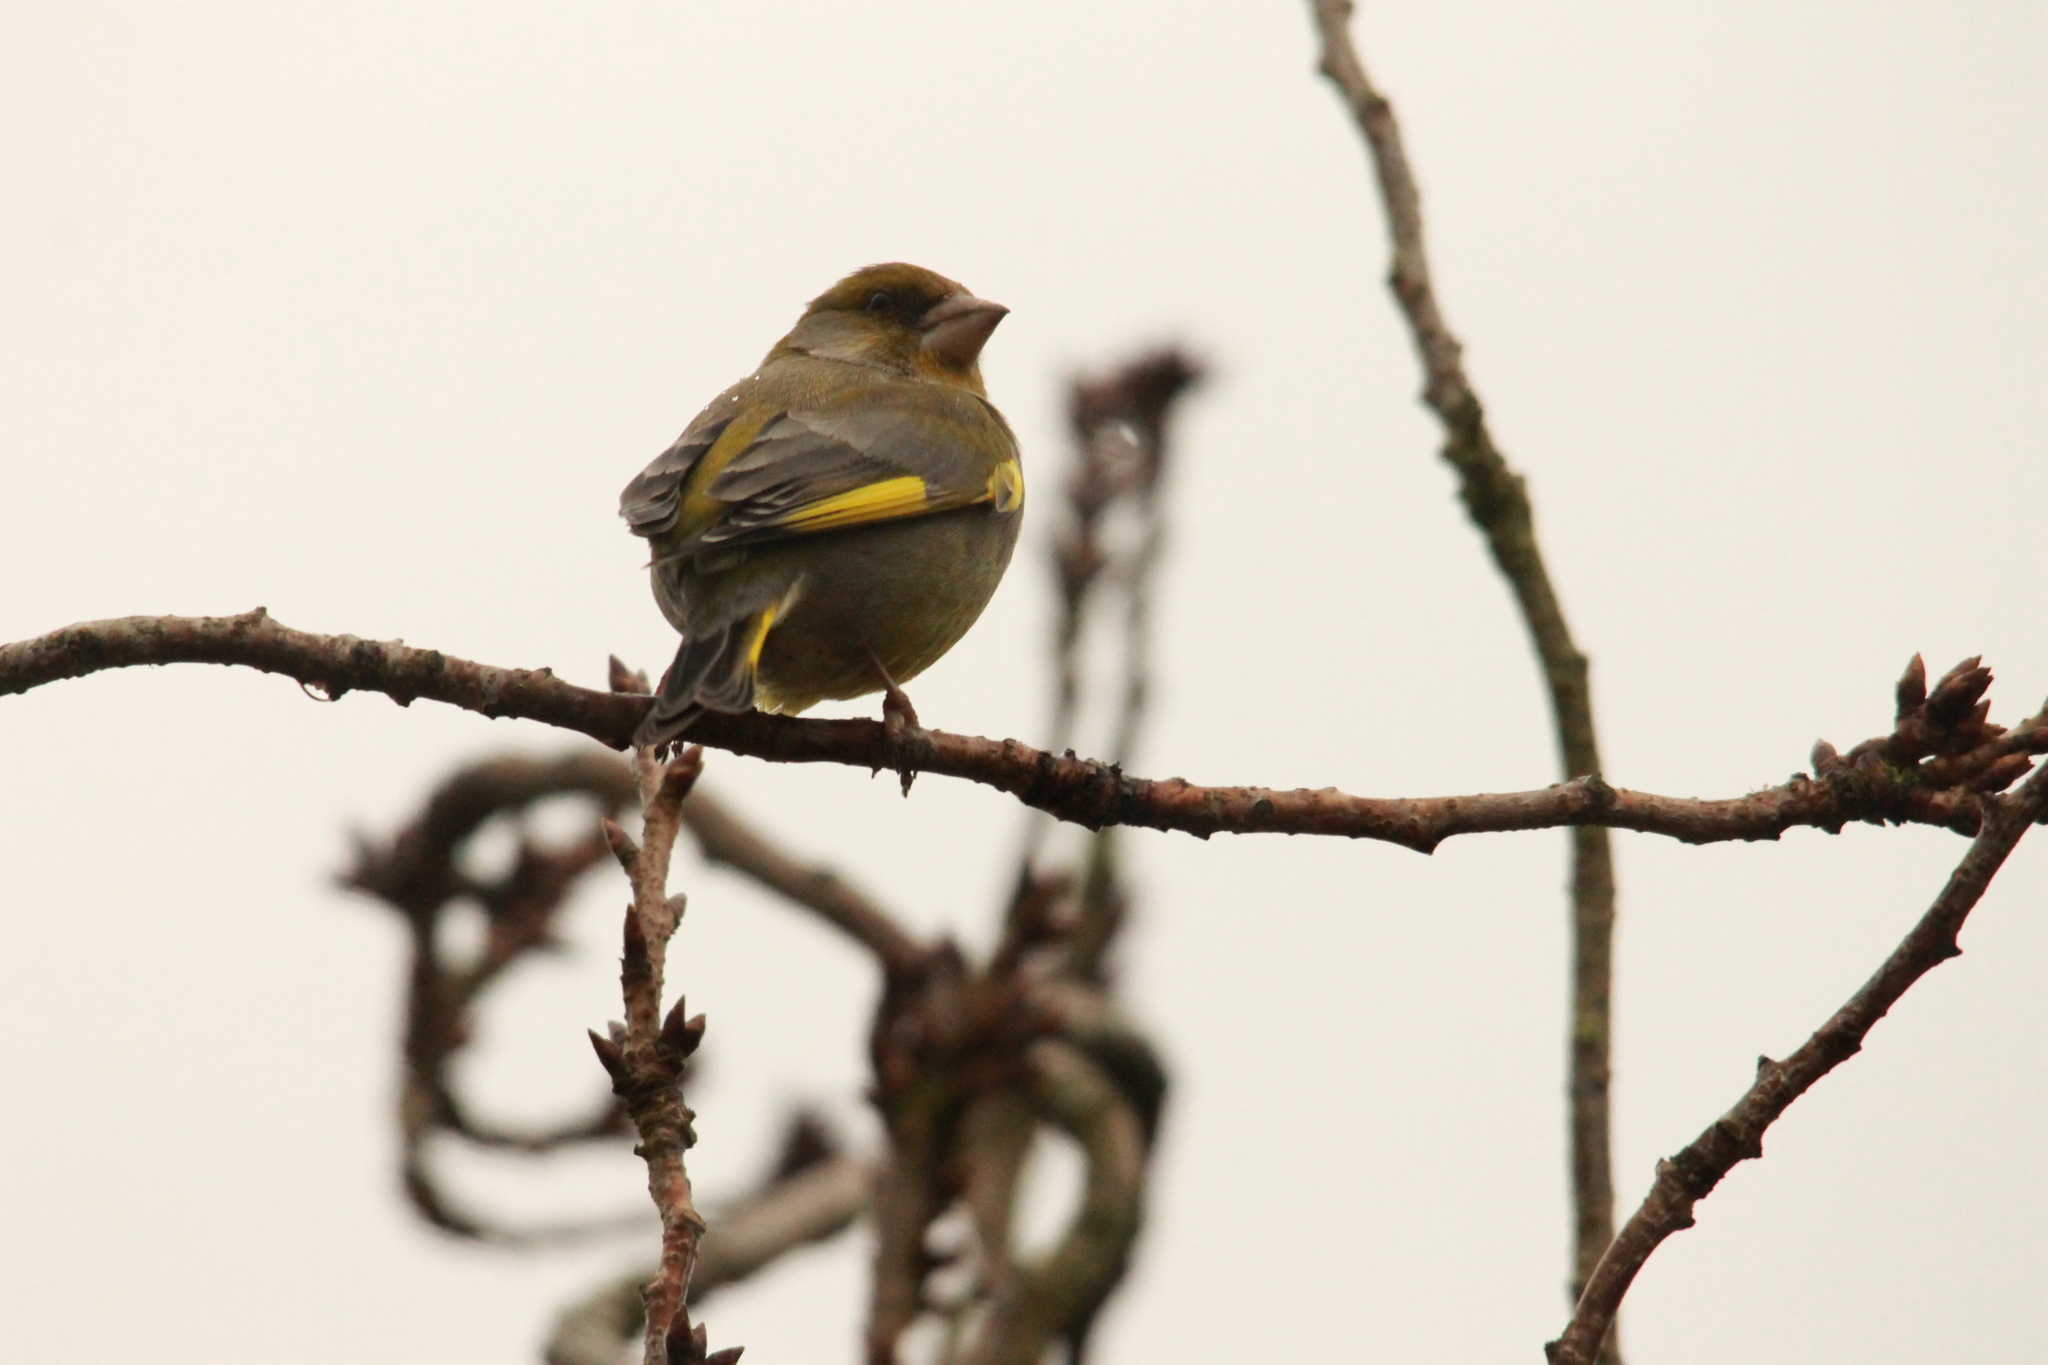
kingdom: Plantae
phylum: Tracheophyta
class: Liliopsida
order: Poales
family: Poaceae
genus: Chloris
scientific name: Chloris chloris
